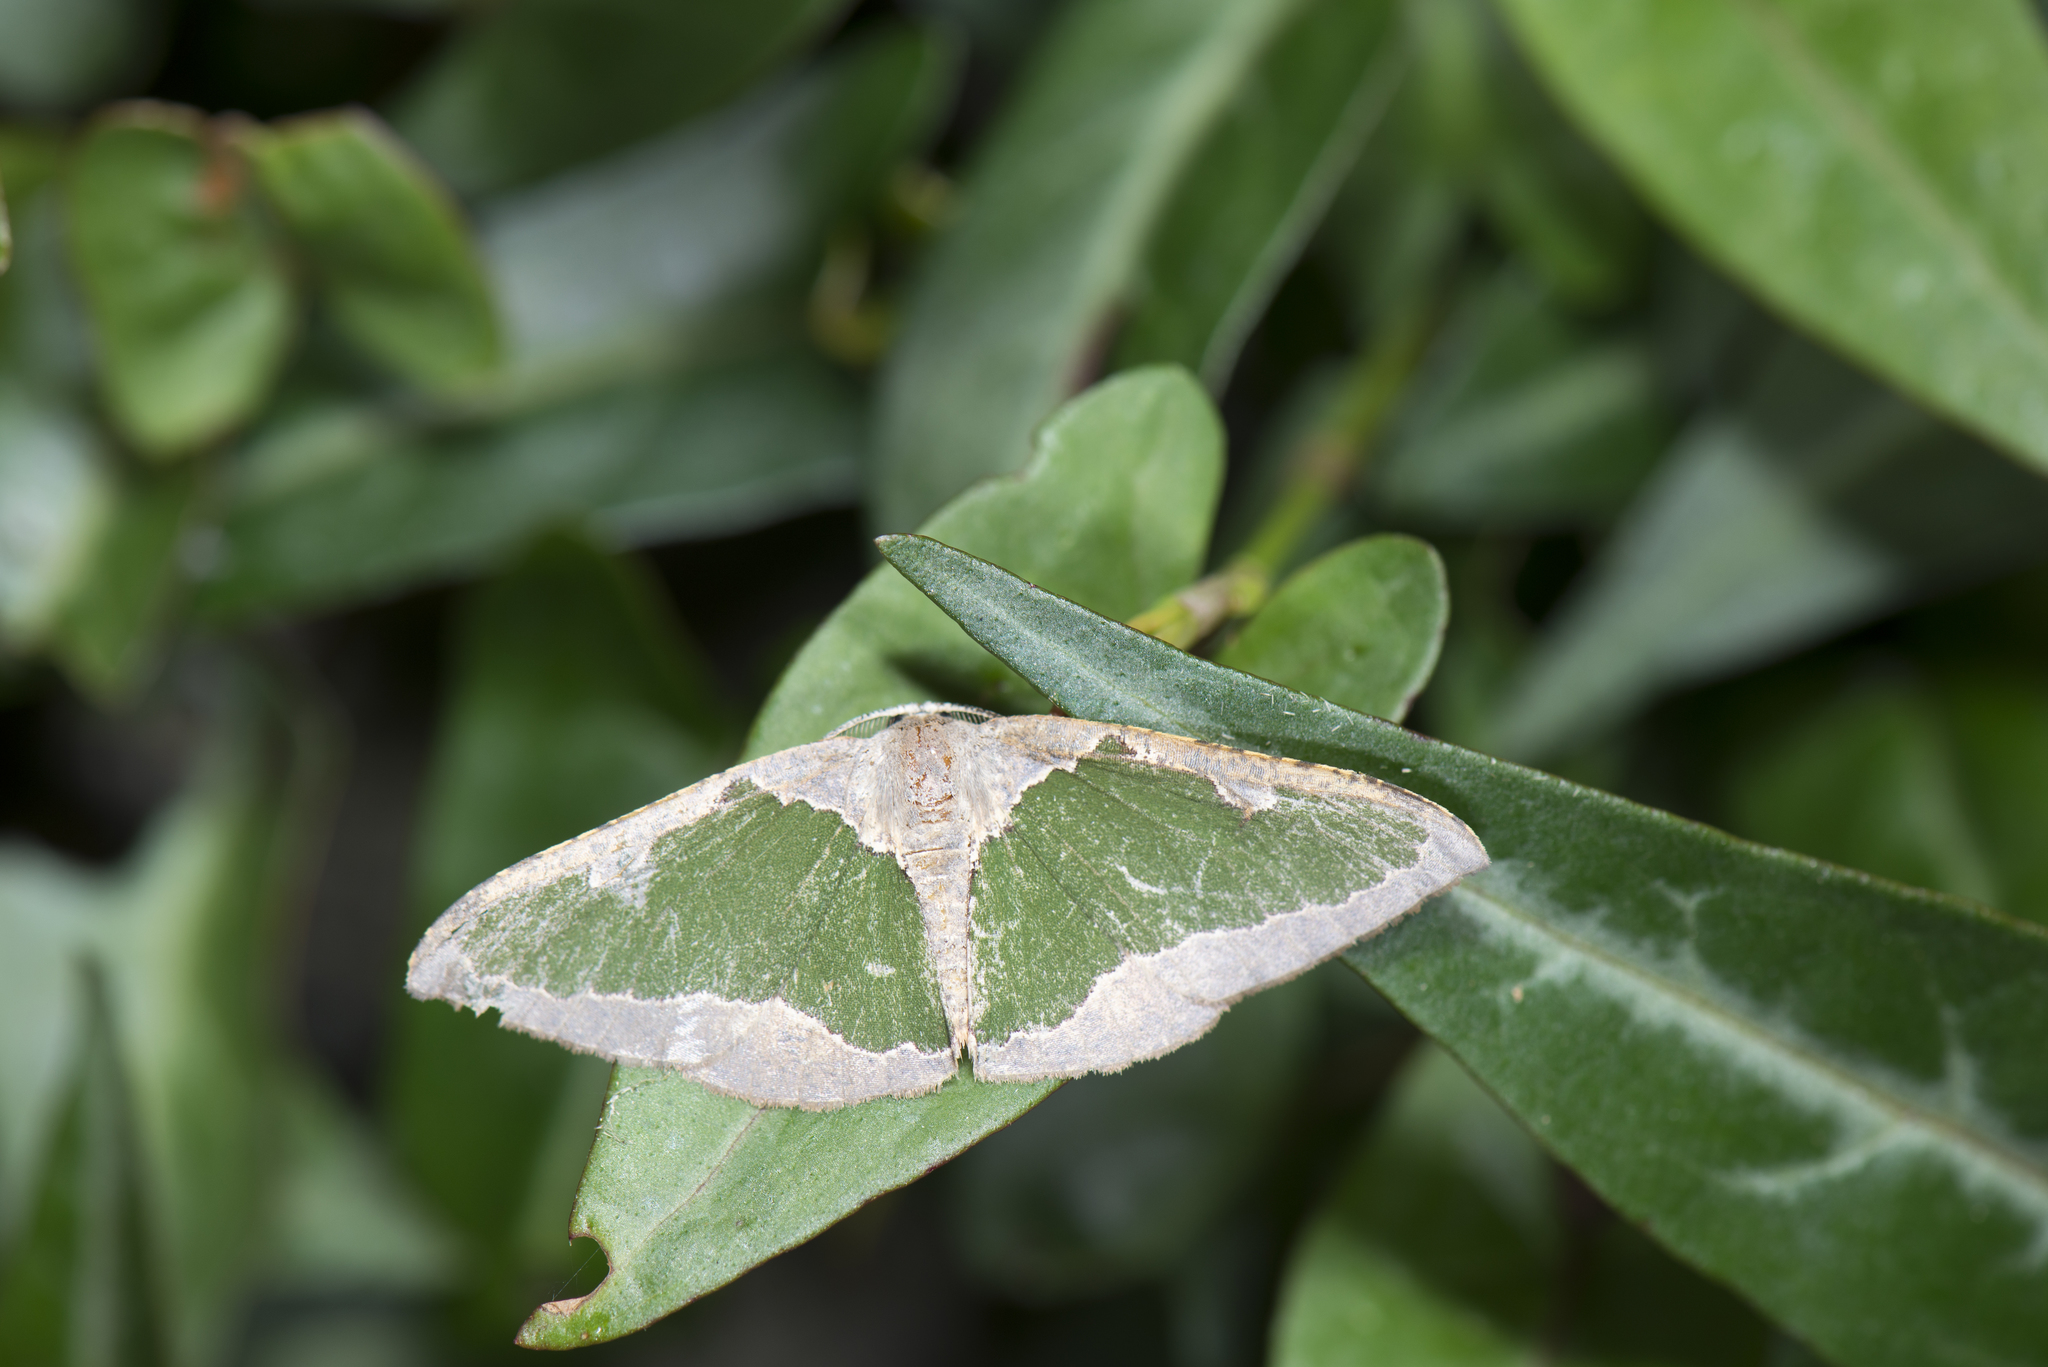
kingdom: Animalia
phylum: Arthropoda
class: Insecta
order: Lepidoptera
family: Geometridae
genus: Celenna
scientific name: Celenna festivaria
